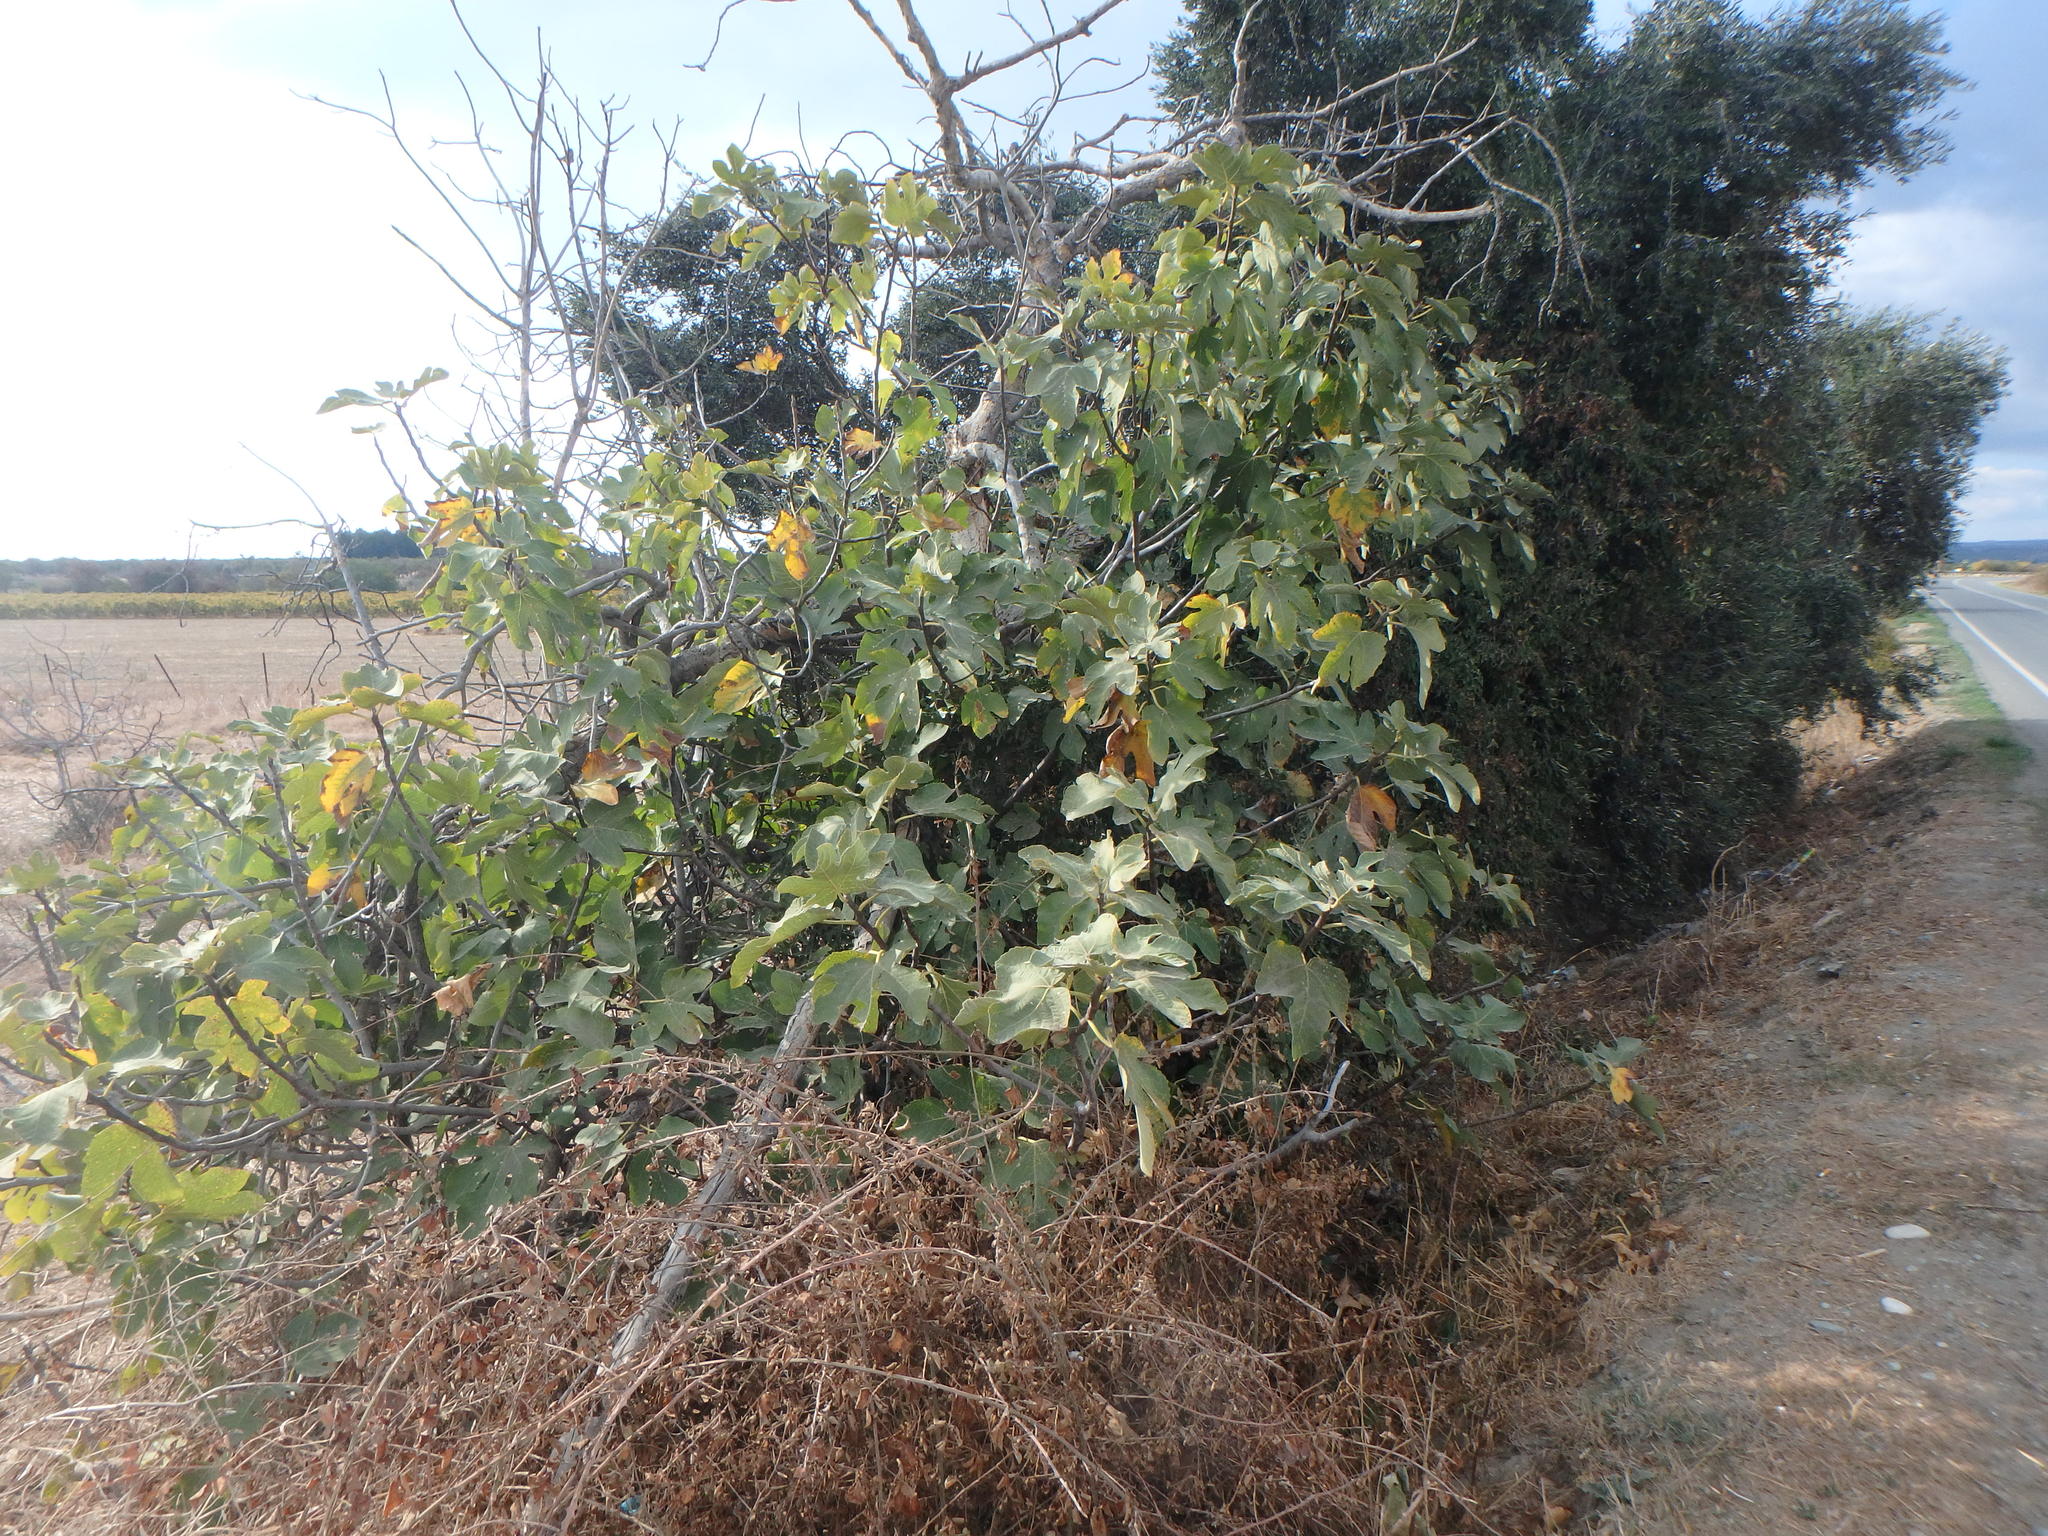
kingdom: Plantae
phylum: Tracheophyta
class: Magnoliopsida
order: Rosales
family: Moraceae
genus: Ficus
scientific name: Ficus carica
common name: Fig
